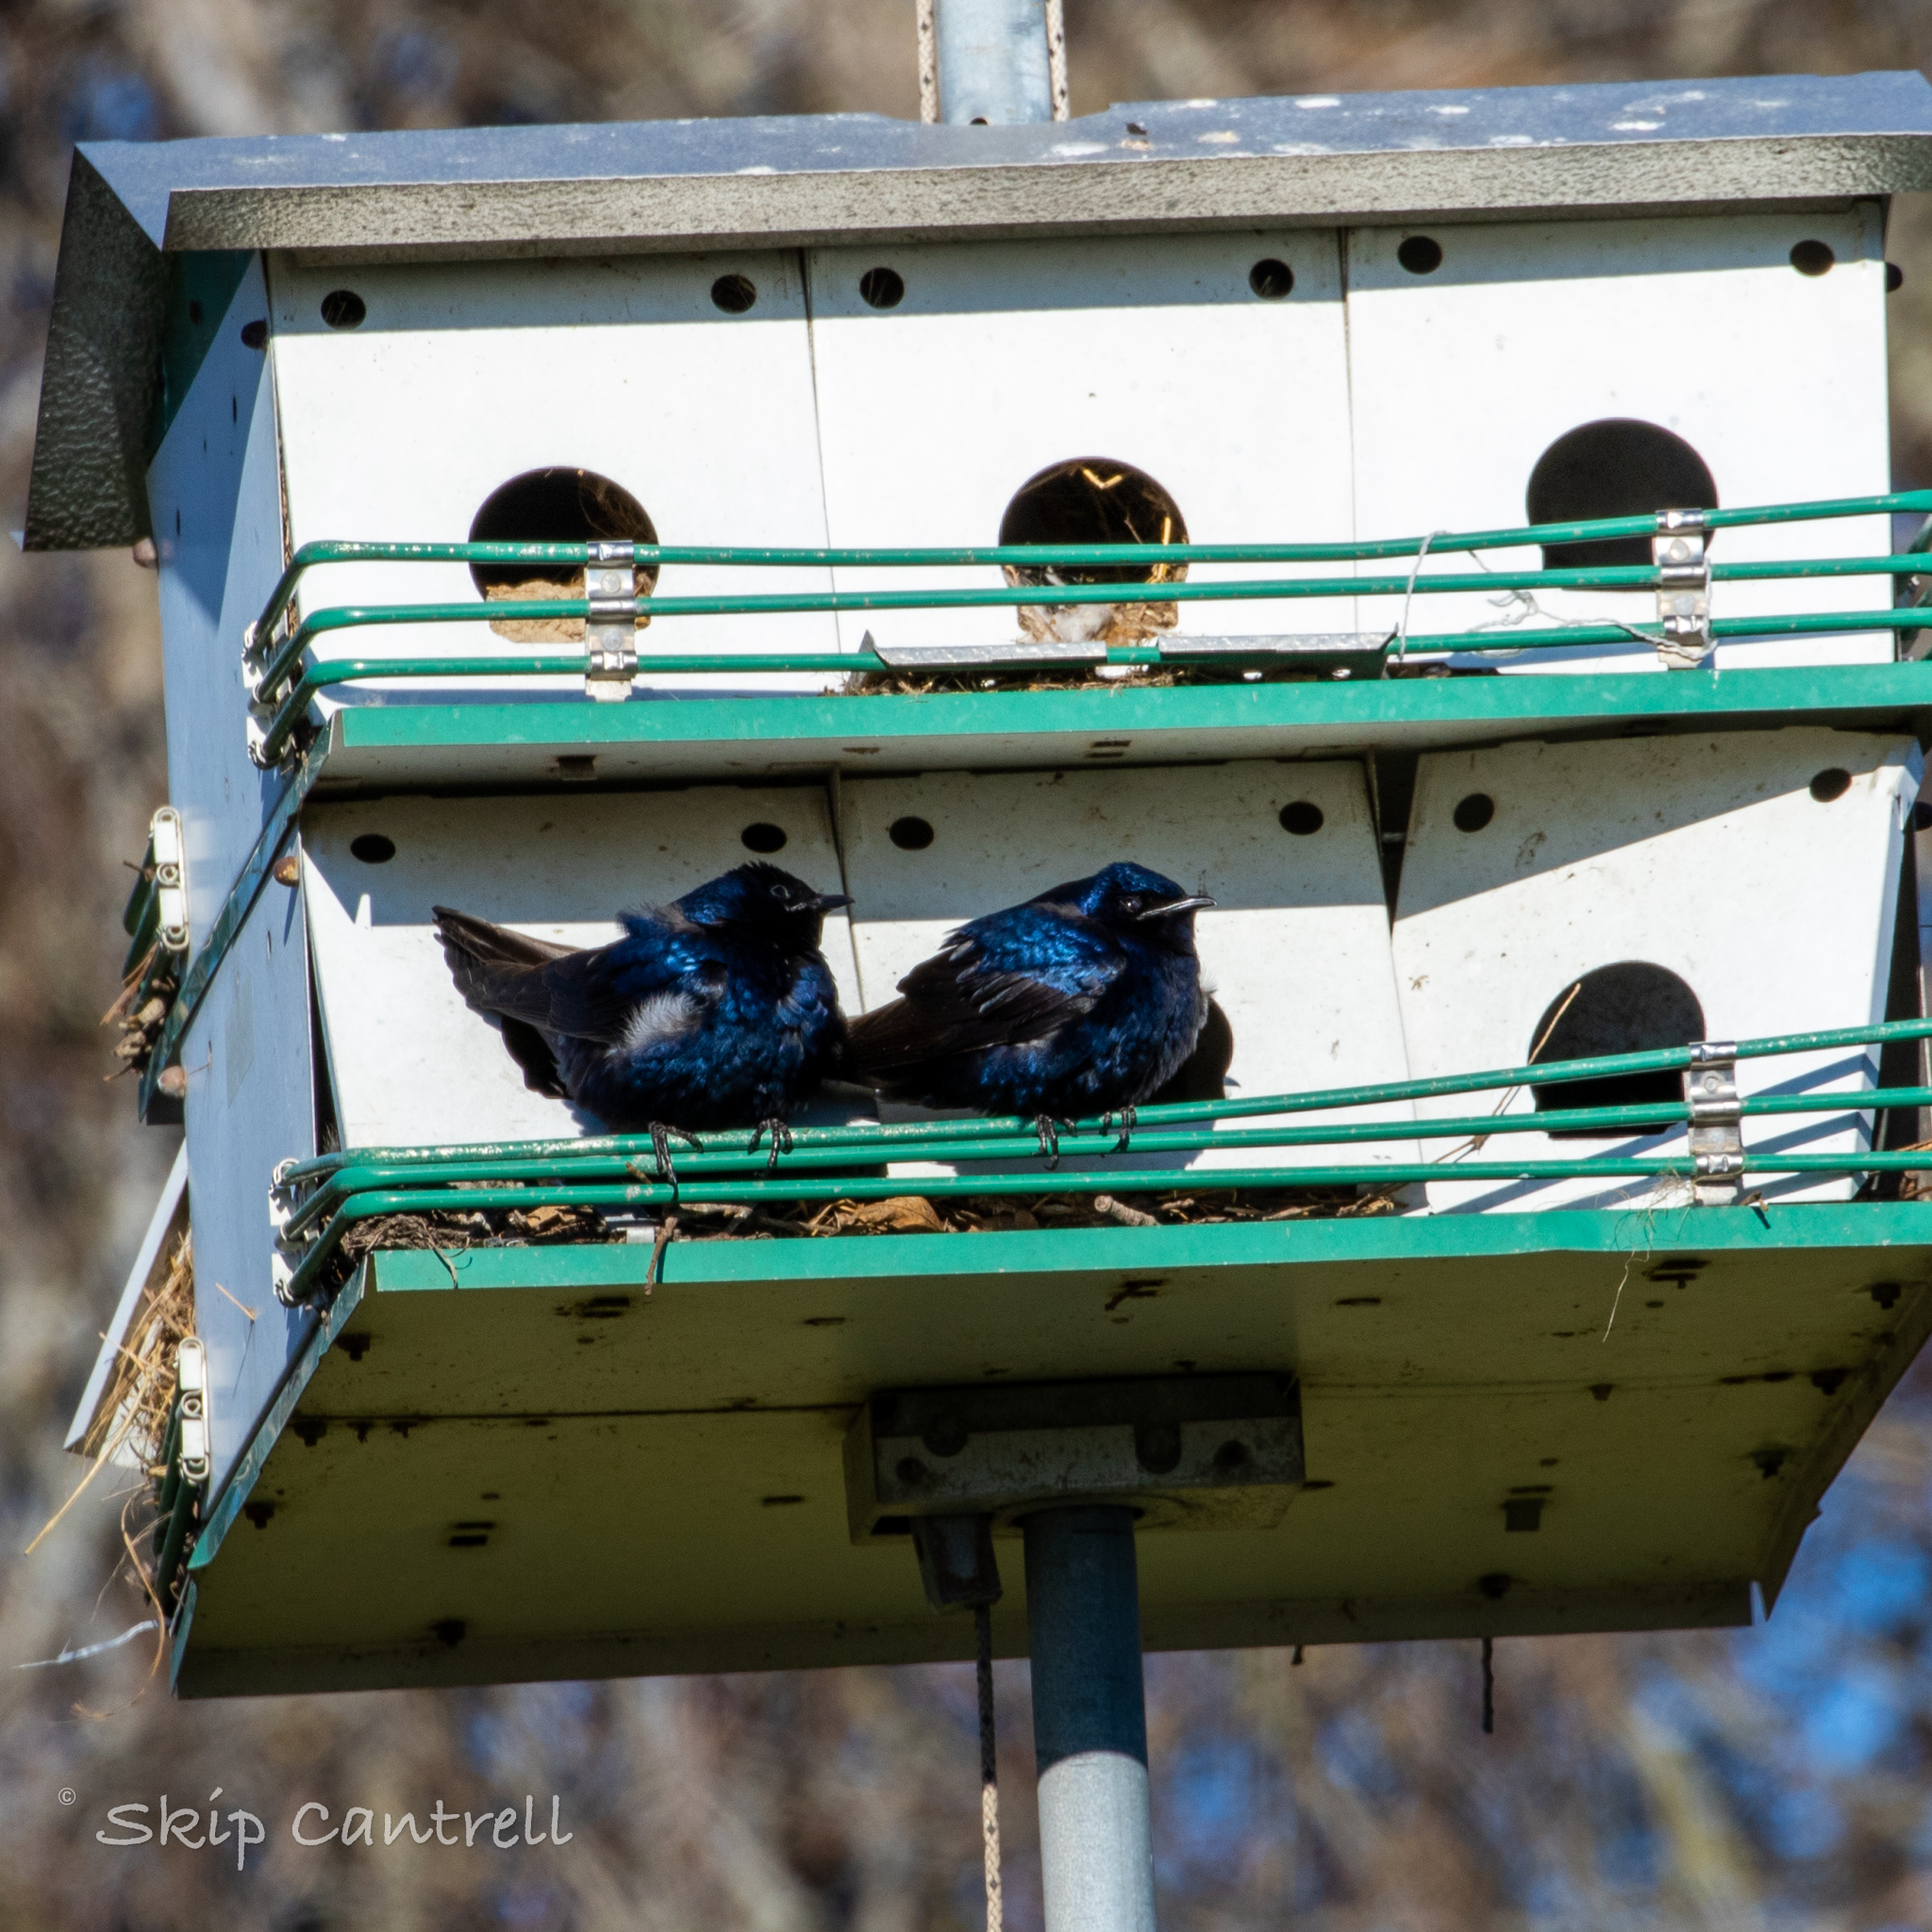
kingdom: Animalia
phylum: Chordata
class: Aves
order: Passeriformes
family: Hirundinidae
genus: Progne
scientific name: Progne subis
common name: Purple martin
